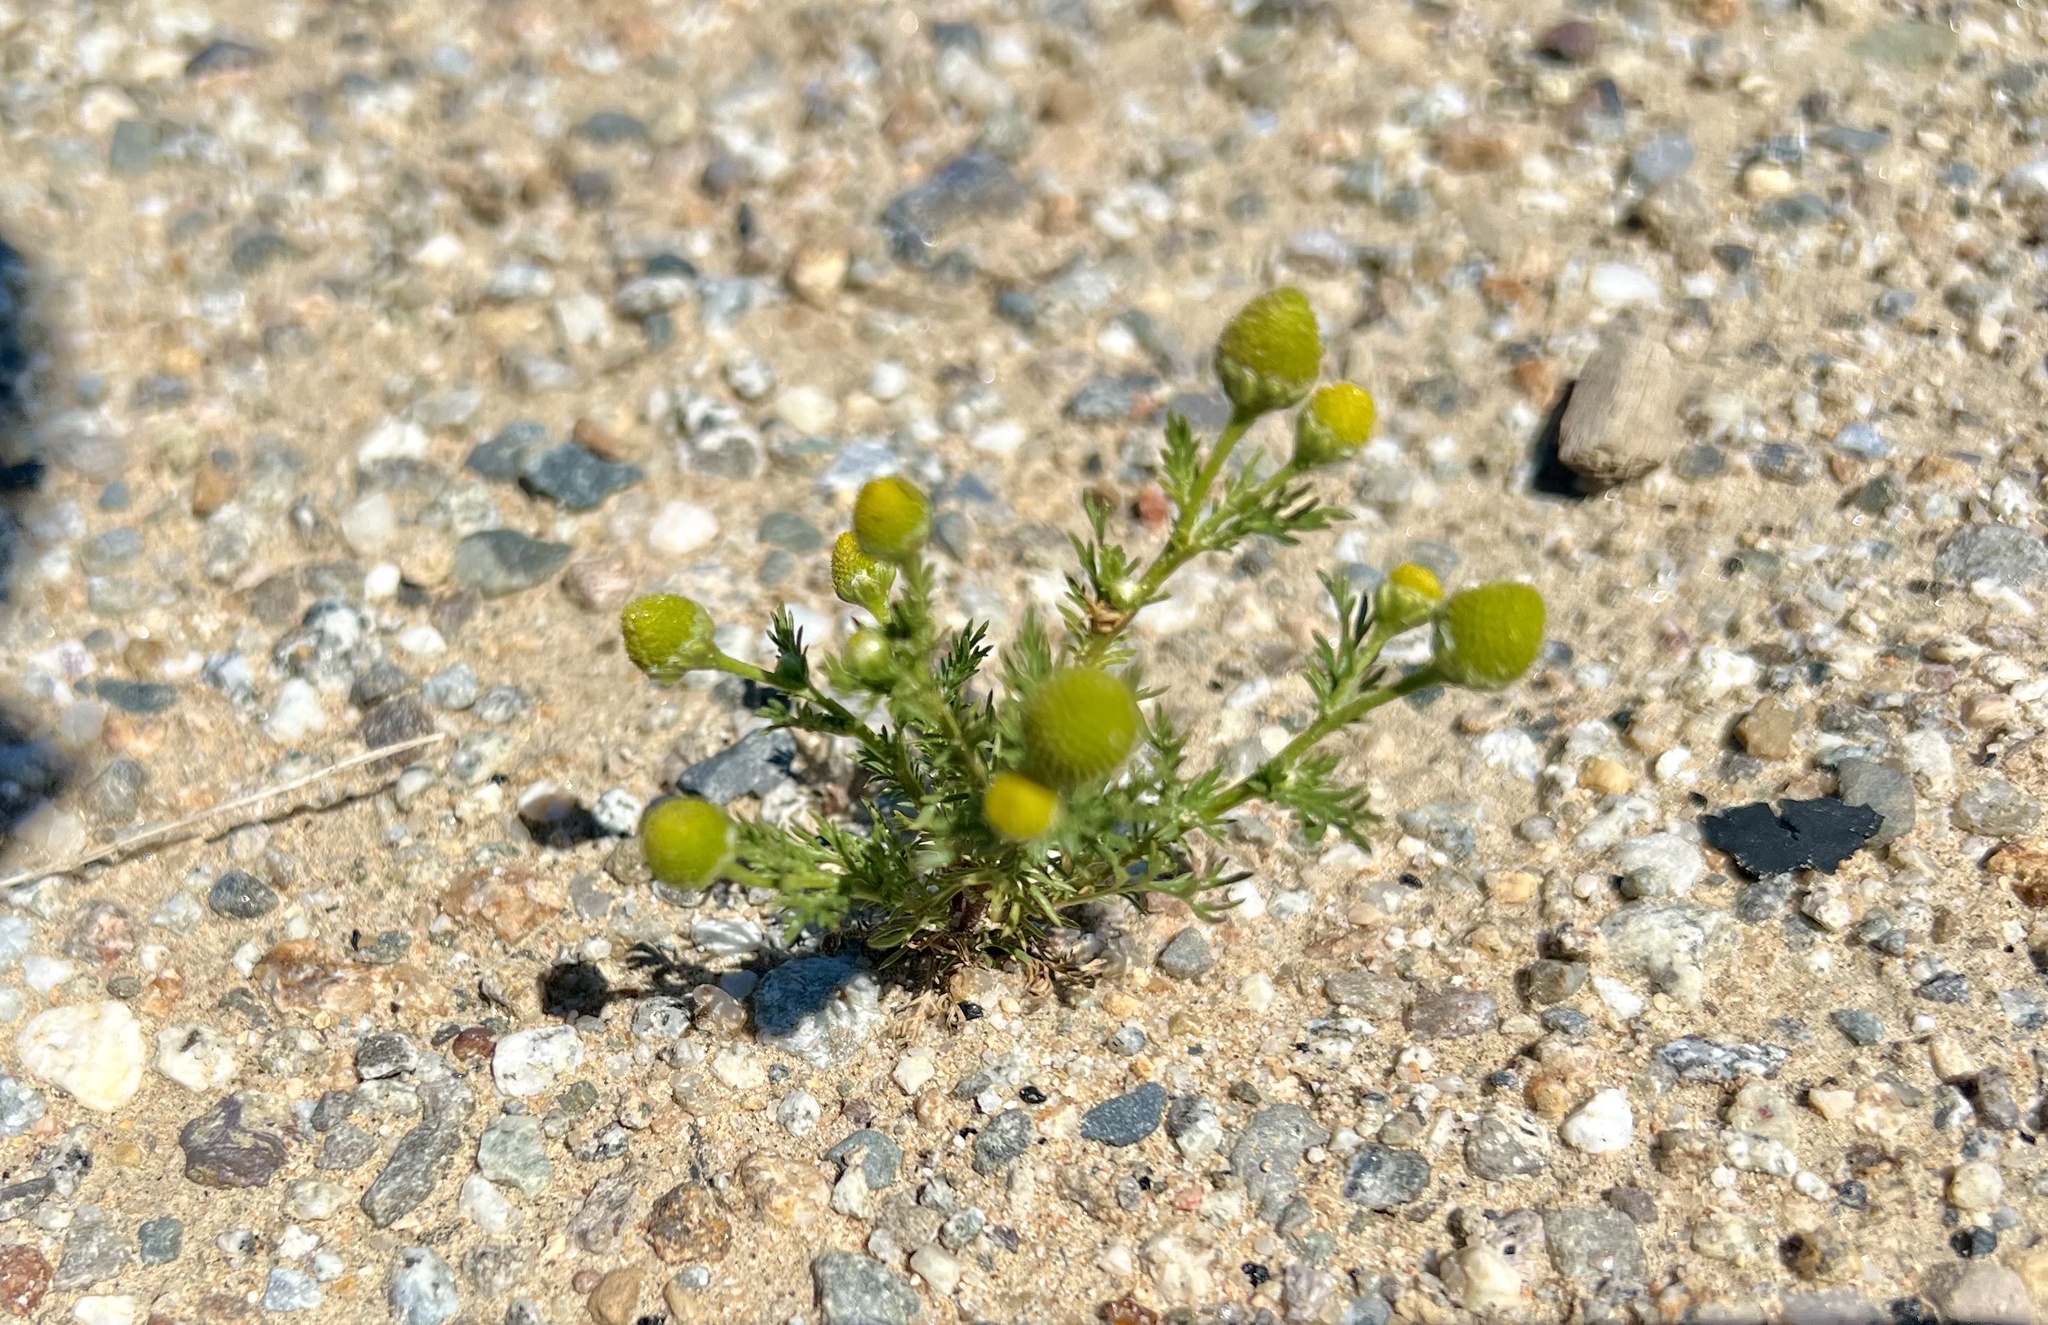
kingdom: Plantae
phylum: Tracheophyta
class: Magnoliopsida
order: Asterales
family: Asteraceae
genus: Matricaria
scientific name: Matricaria discoidea
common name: Disc mayweed
